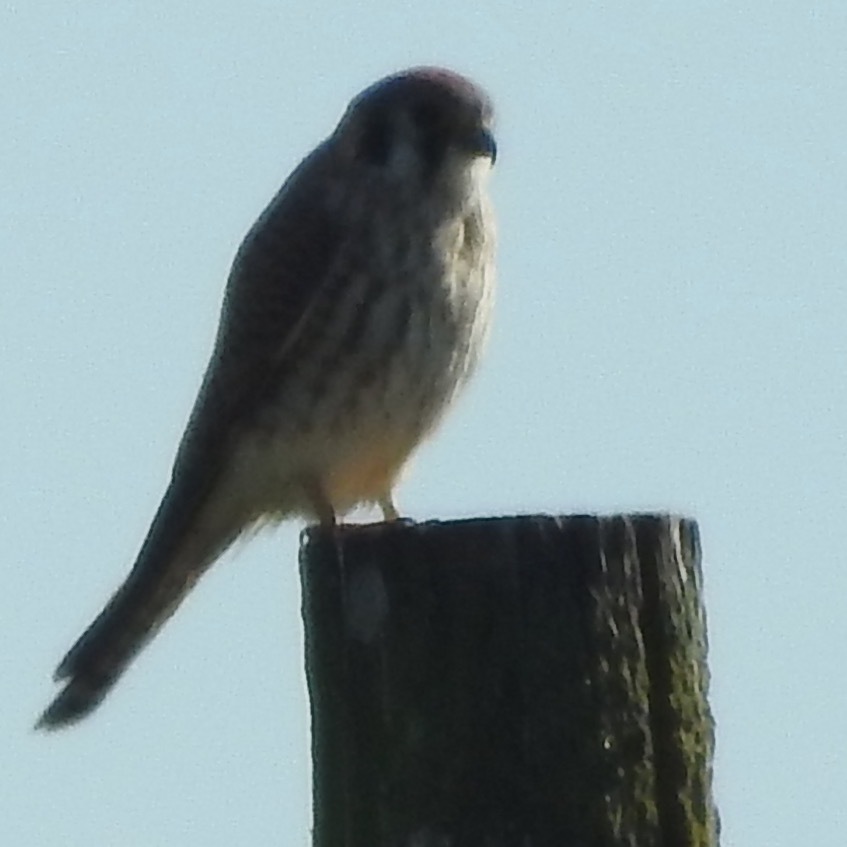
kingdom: Animalia
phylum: Chordata
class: Aves
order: Falconiformes
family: Falconidae
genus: Falco
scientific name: Falco sparverius
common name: American kestrel
